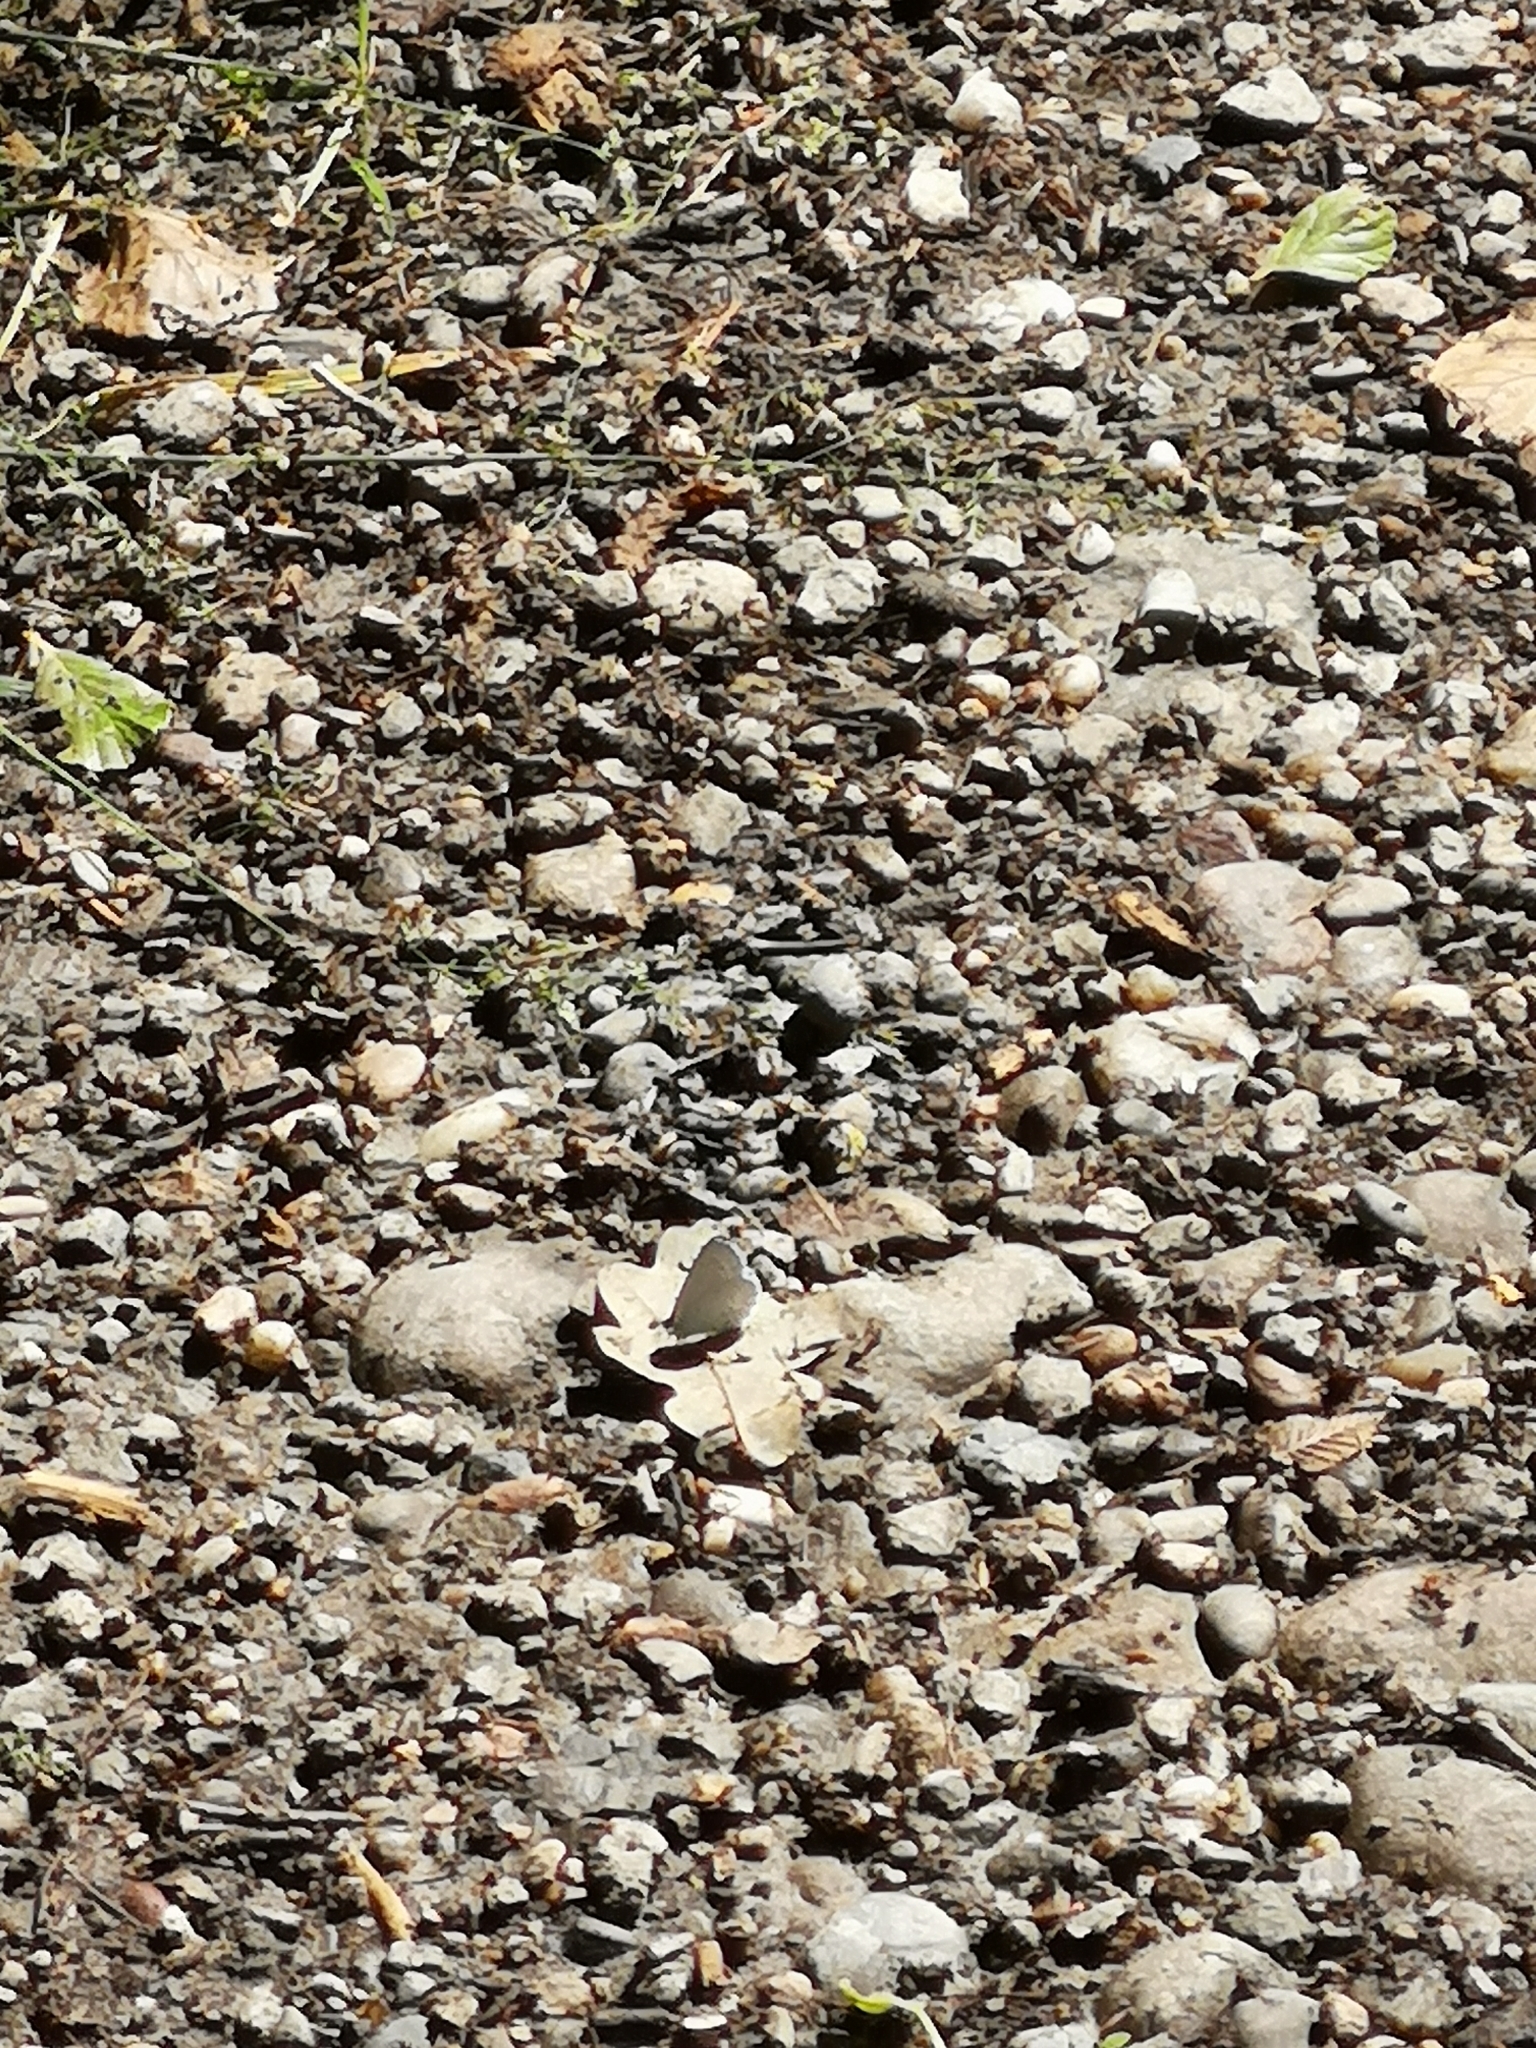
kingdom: Animalia
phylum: Arthropoda
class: Insecta
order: Lepidoptera
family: Lycaenidae
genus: Celastrina
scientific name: Celastrina argiolus
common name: Holly blue
